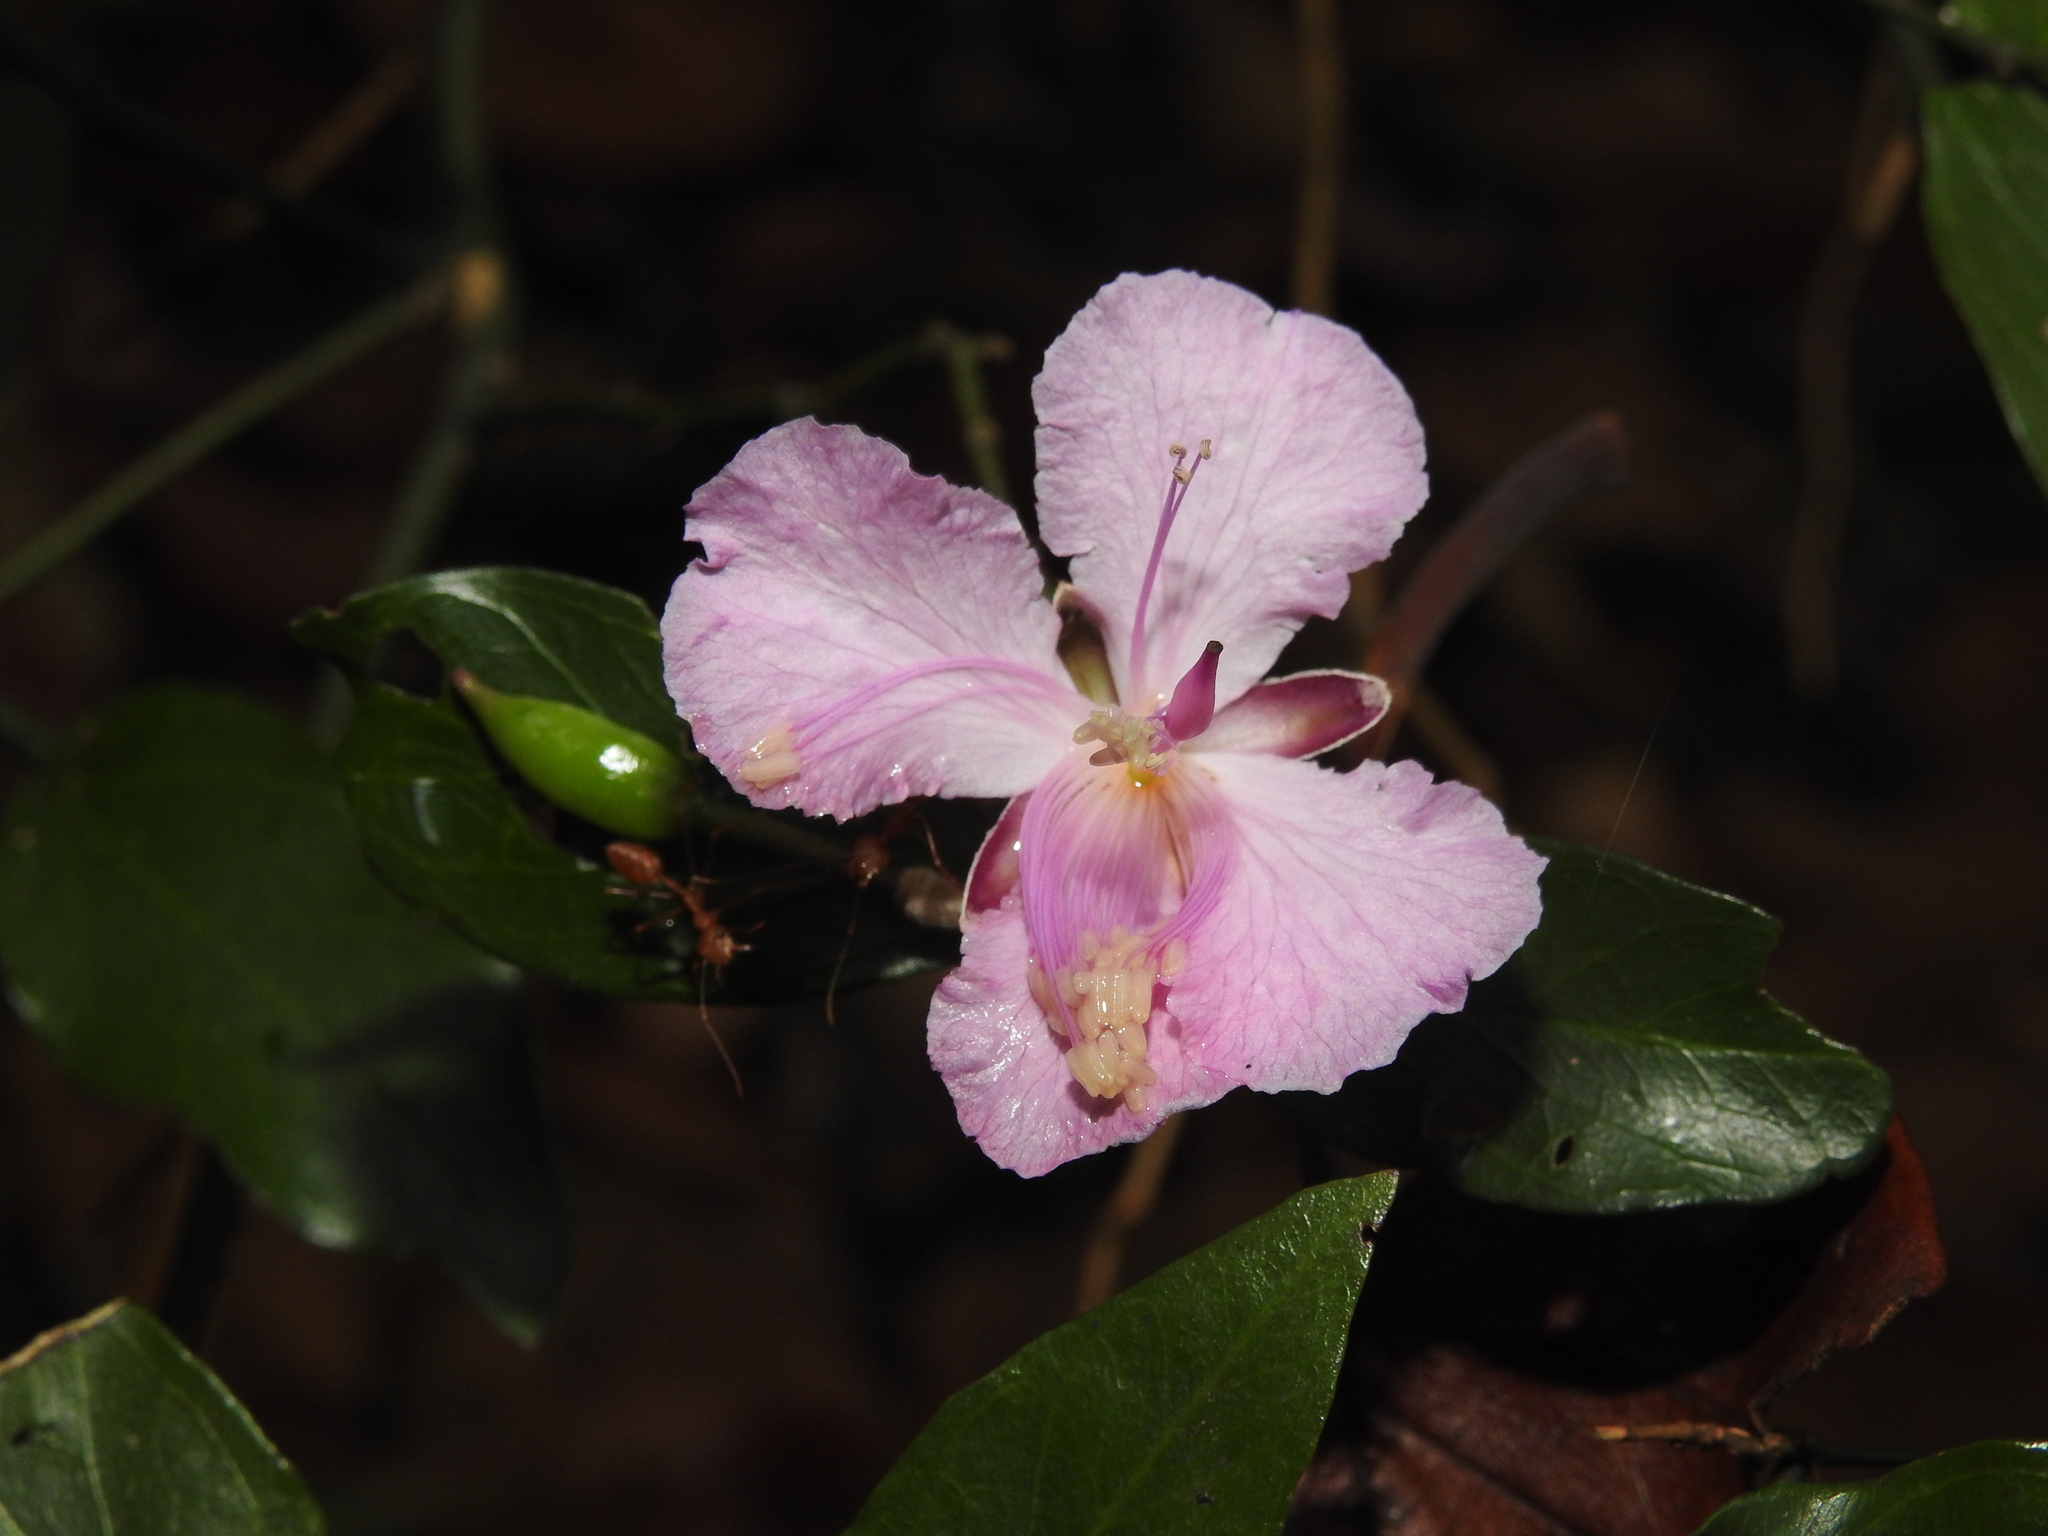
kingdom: Plantae
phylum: Tracheophyta
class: Magnoliopsida
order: Brassicales
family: Capparaceae
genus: Capparis
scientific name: Capparis diversifolia
